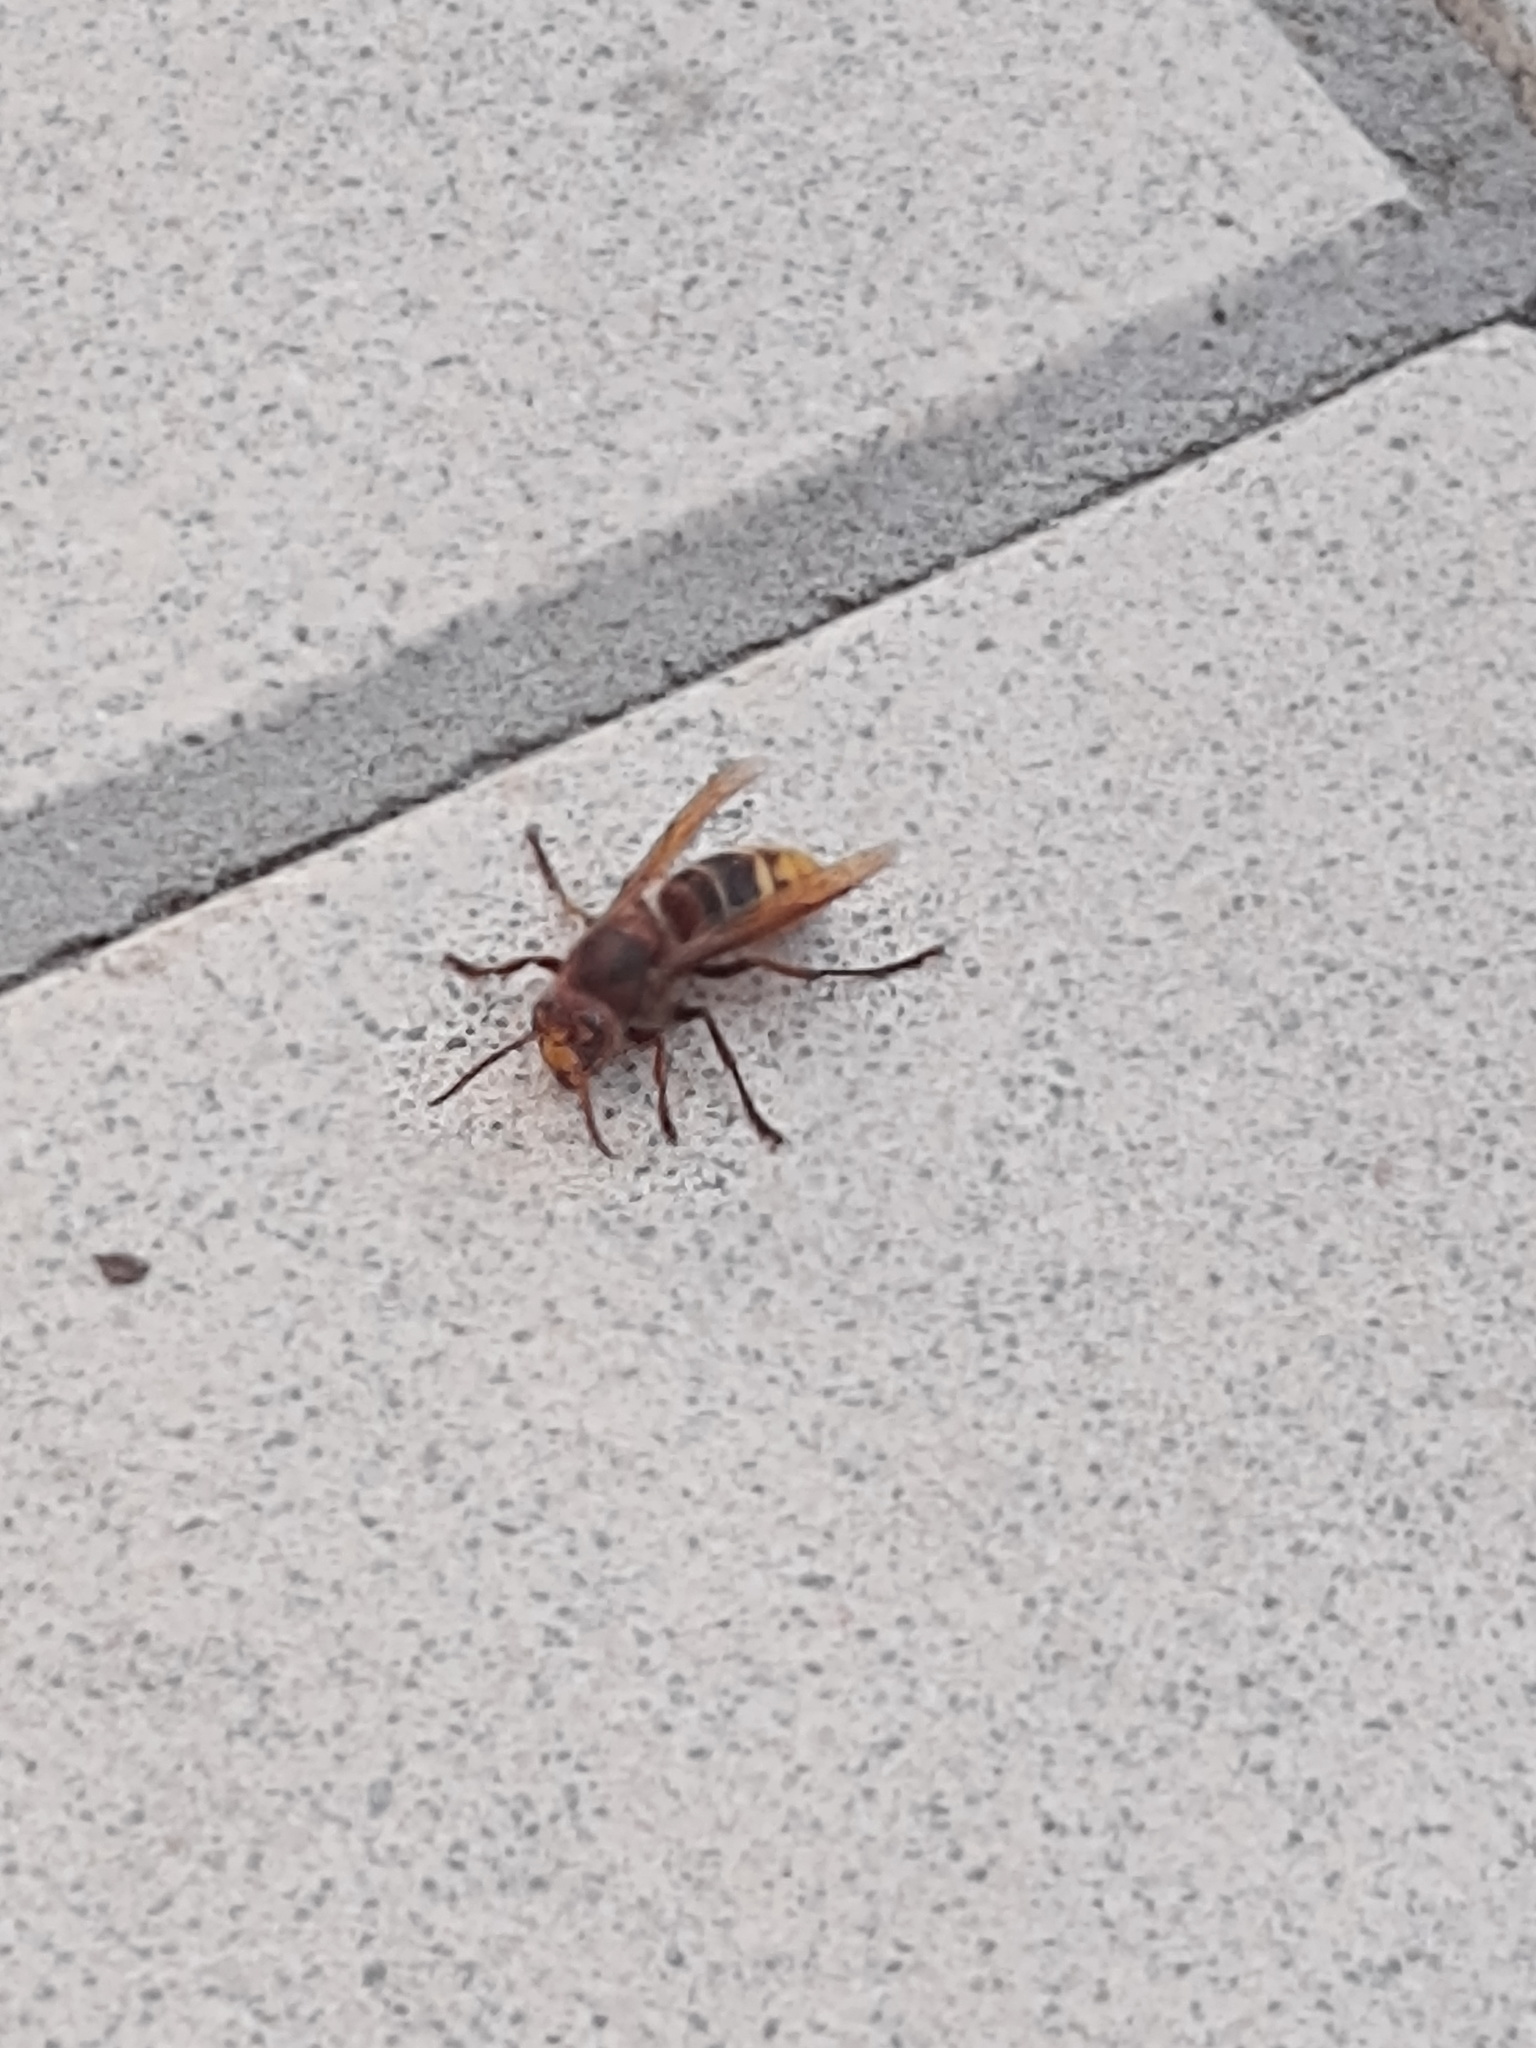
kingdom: Animalia
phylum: Arthropoda
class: Insecta
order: Hymenoptera
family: Vespidae
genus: Vespa
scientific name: Vespa crabro
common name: Hornet
